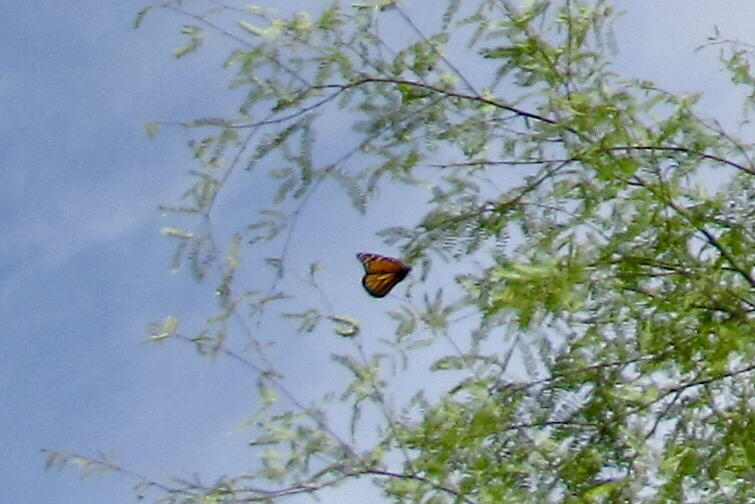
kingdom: Animalia
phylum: Arthropoda
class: Insecta
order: Lepidoptera
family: Nymphalidae
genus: Danaus
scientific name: Danaus plexippus
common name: Monarch
